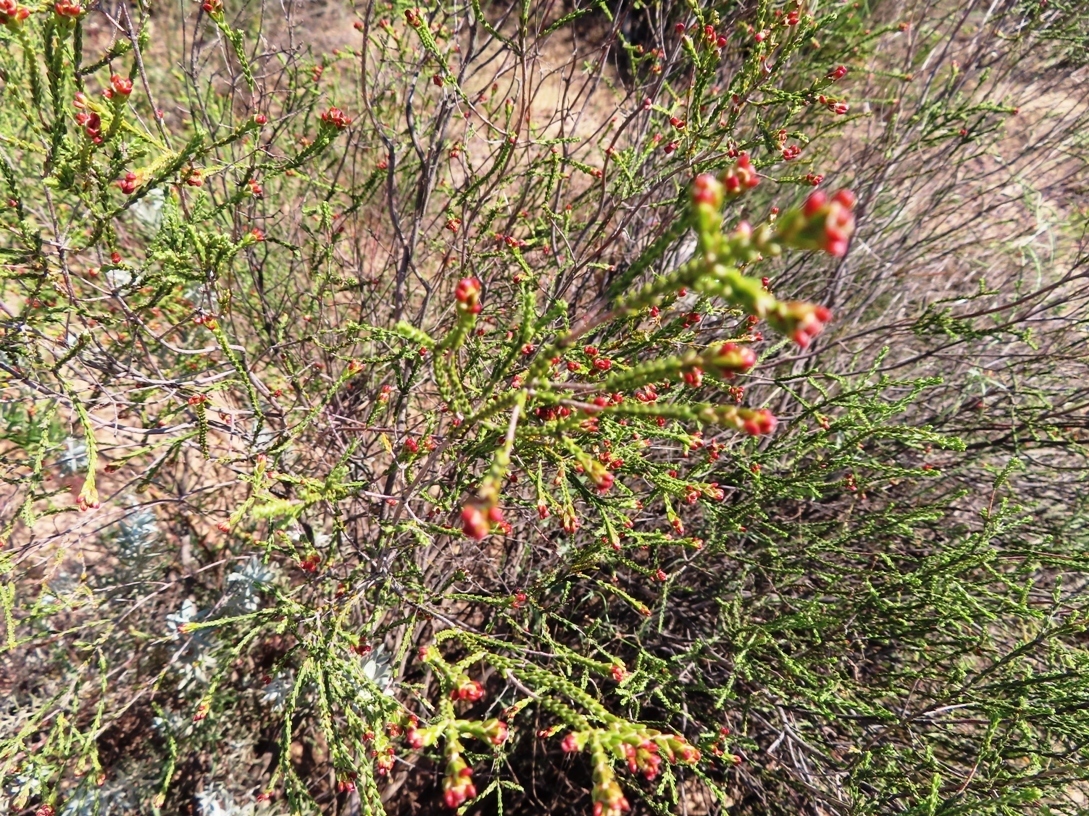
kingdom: Plantae
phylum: Tracheophyta
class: Magnoliopsida
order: Malvales
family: Thymelaeaceae
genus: Passerina
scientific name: Passerina truncata
